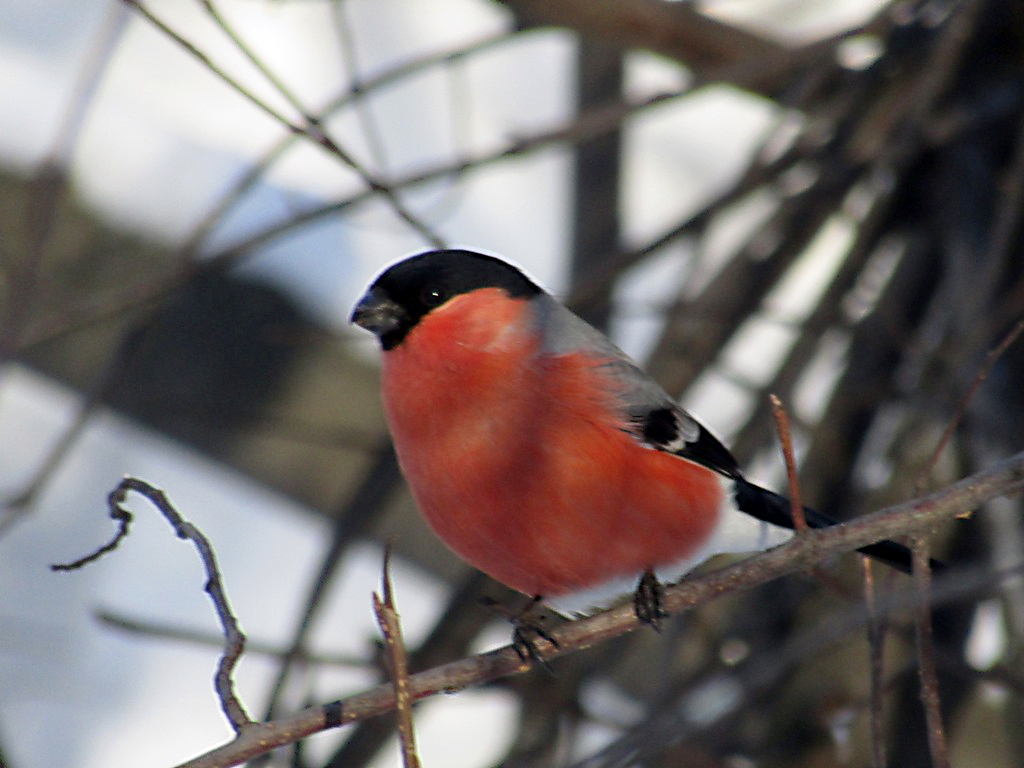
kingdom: Animalia
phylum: Chordata
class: Aves
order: Passeriformes
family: Fringillidae
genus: Pyrrhula
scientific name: Pyrrhula pyrrhula
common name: Eurasian bullfinch
